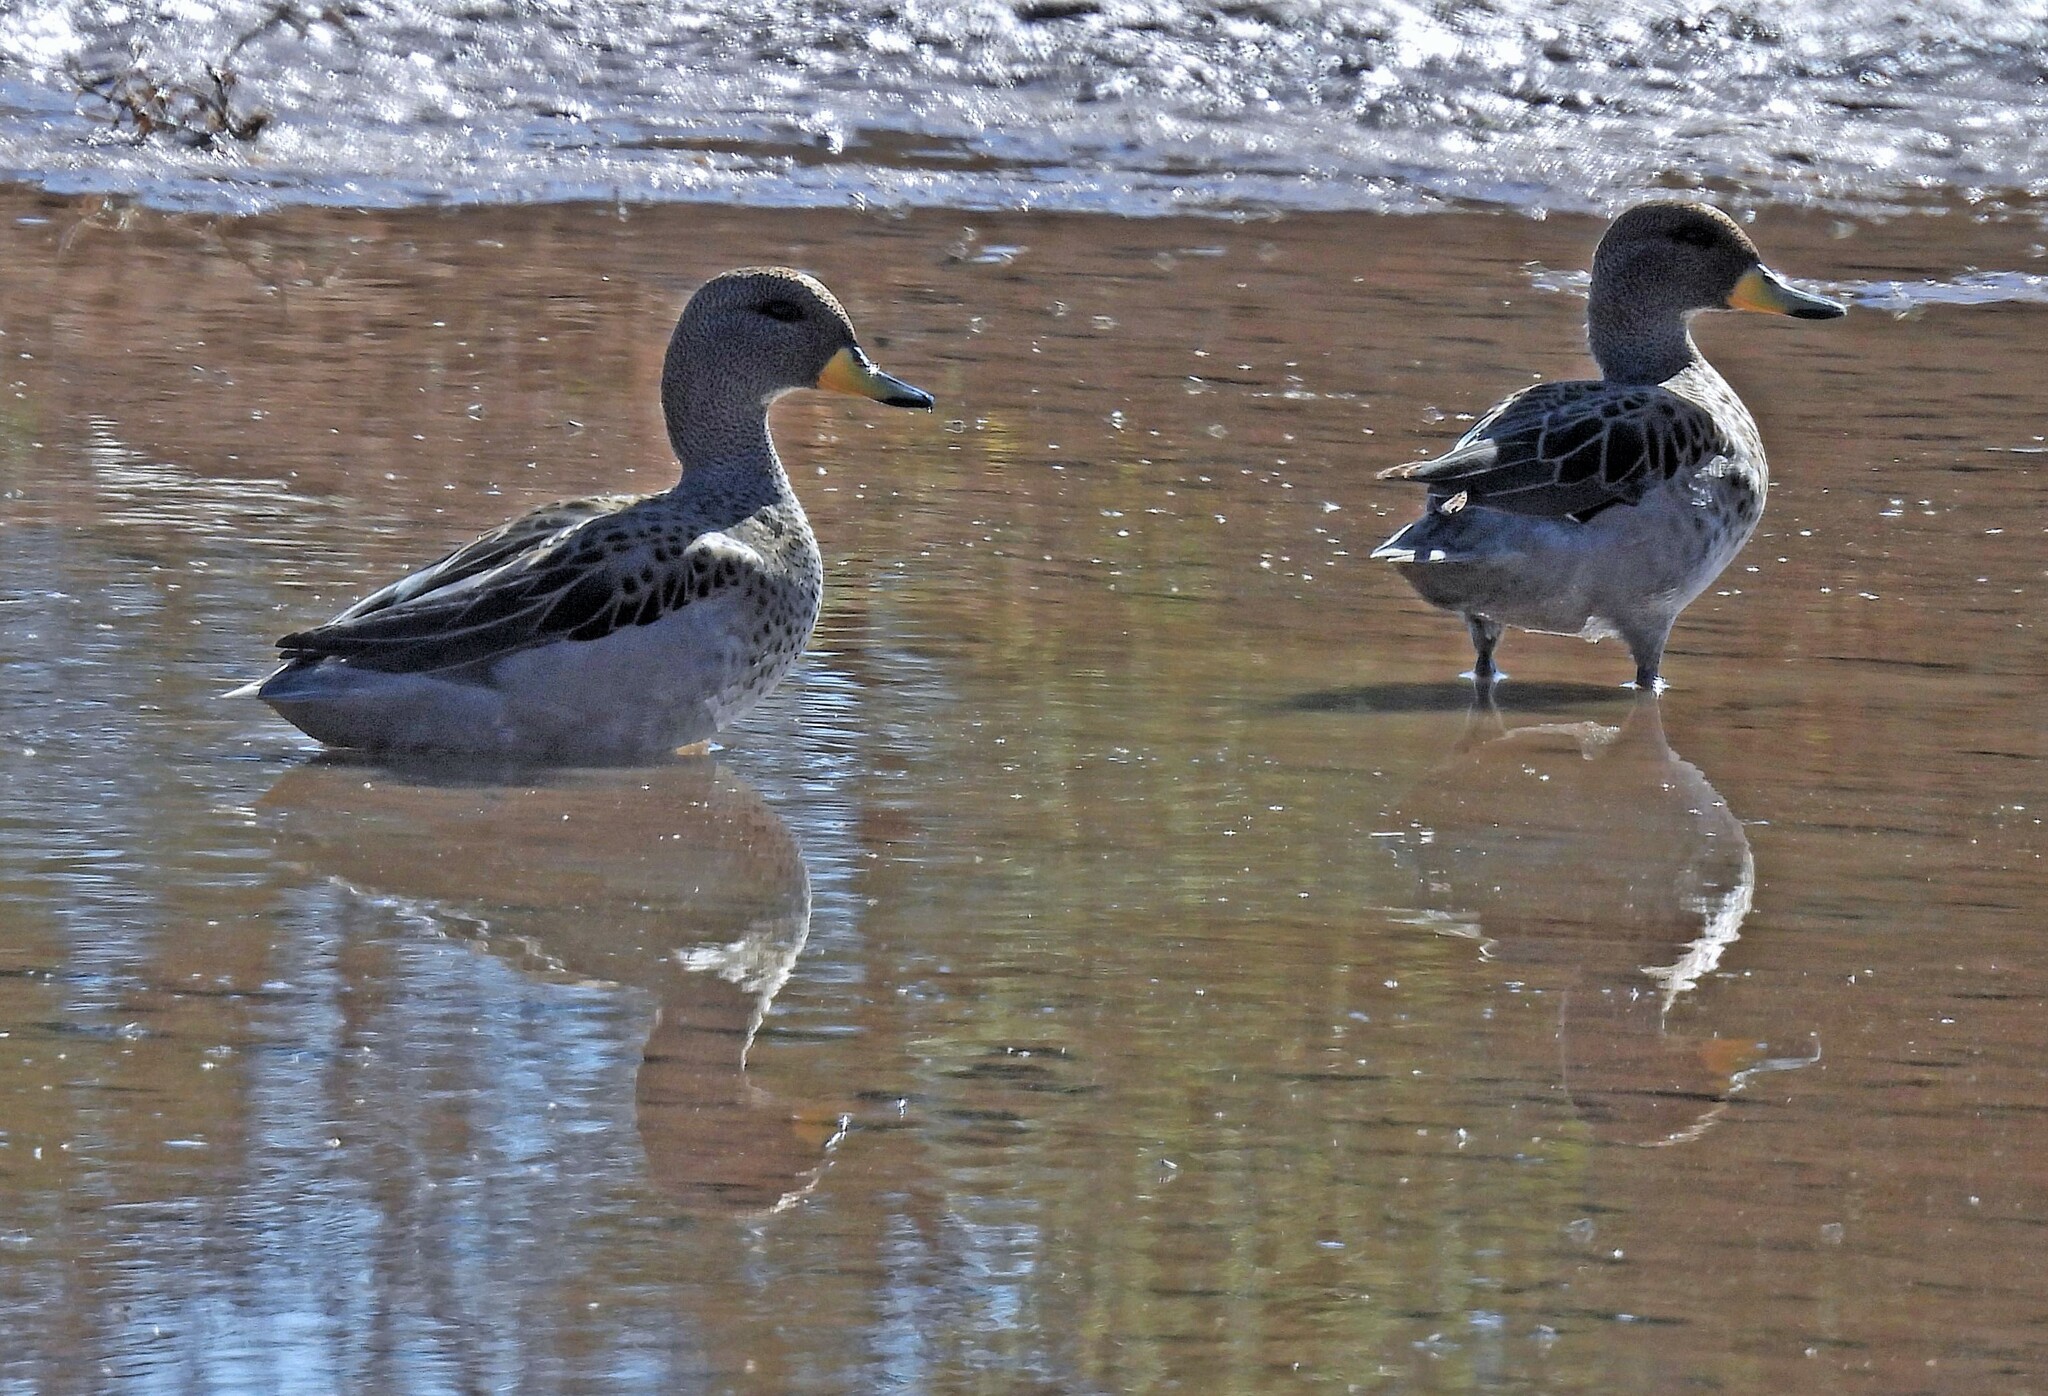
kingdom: Animalia
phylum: Chordata
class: Aves
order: Anseriformes
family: Anatidae
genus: Anas
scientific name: Anas flavirostris
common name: Yellow-billed teal
